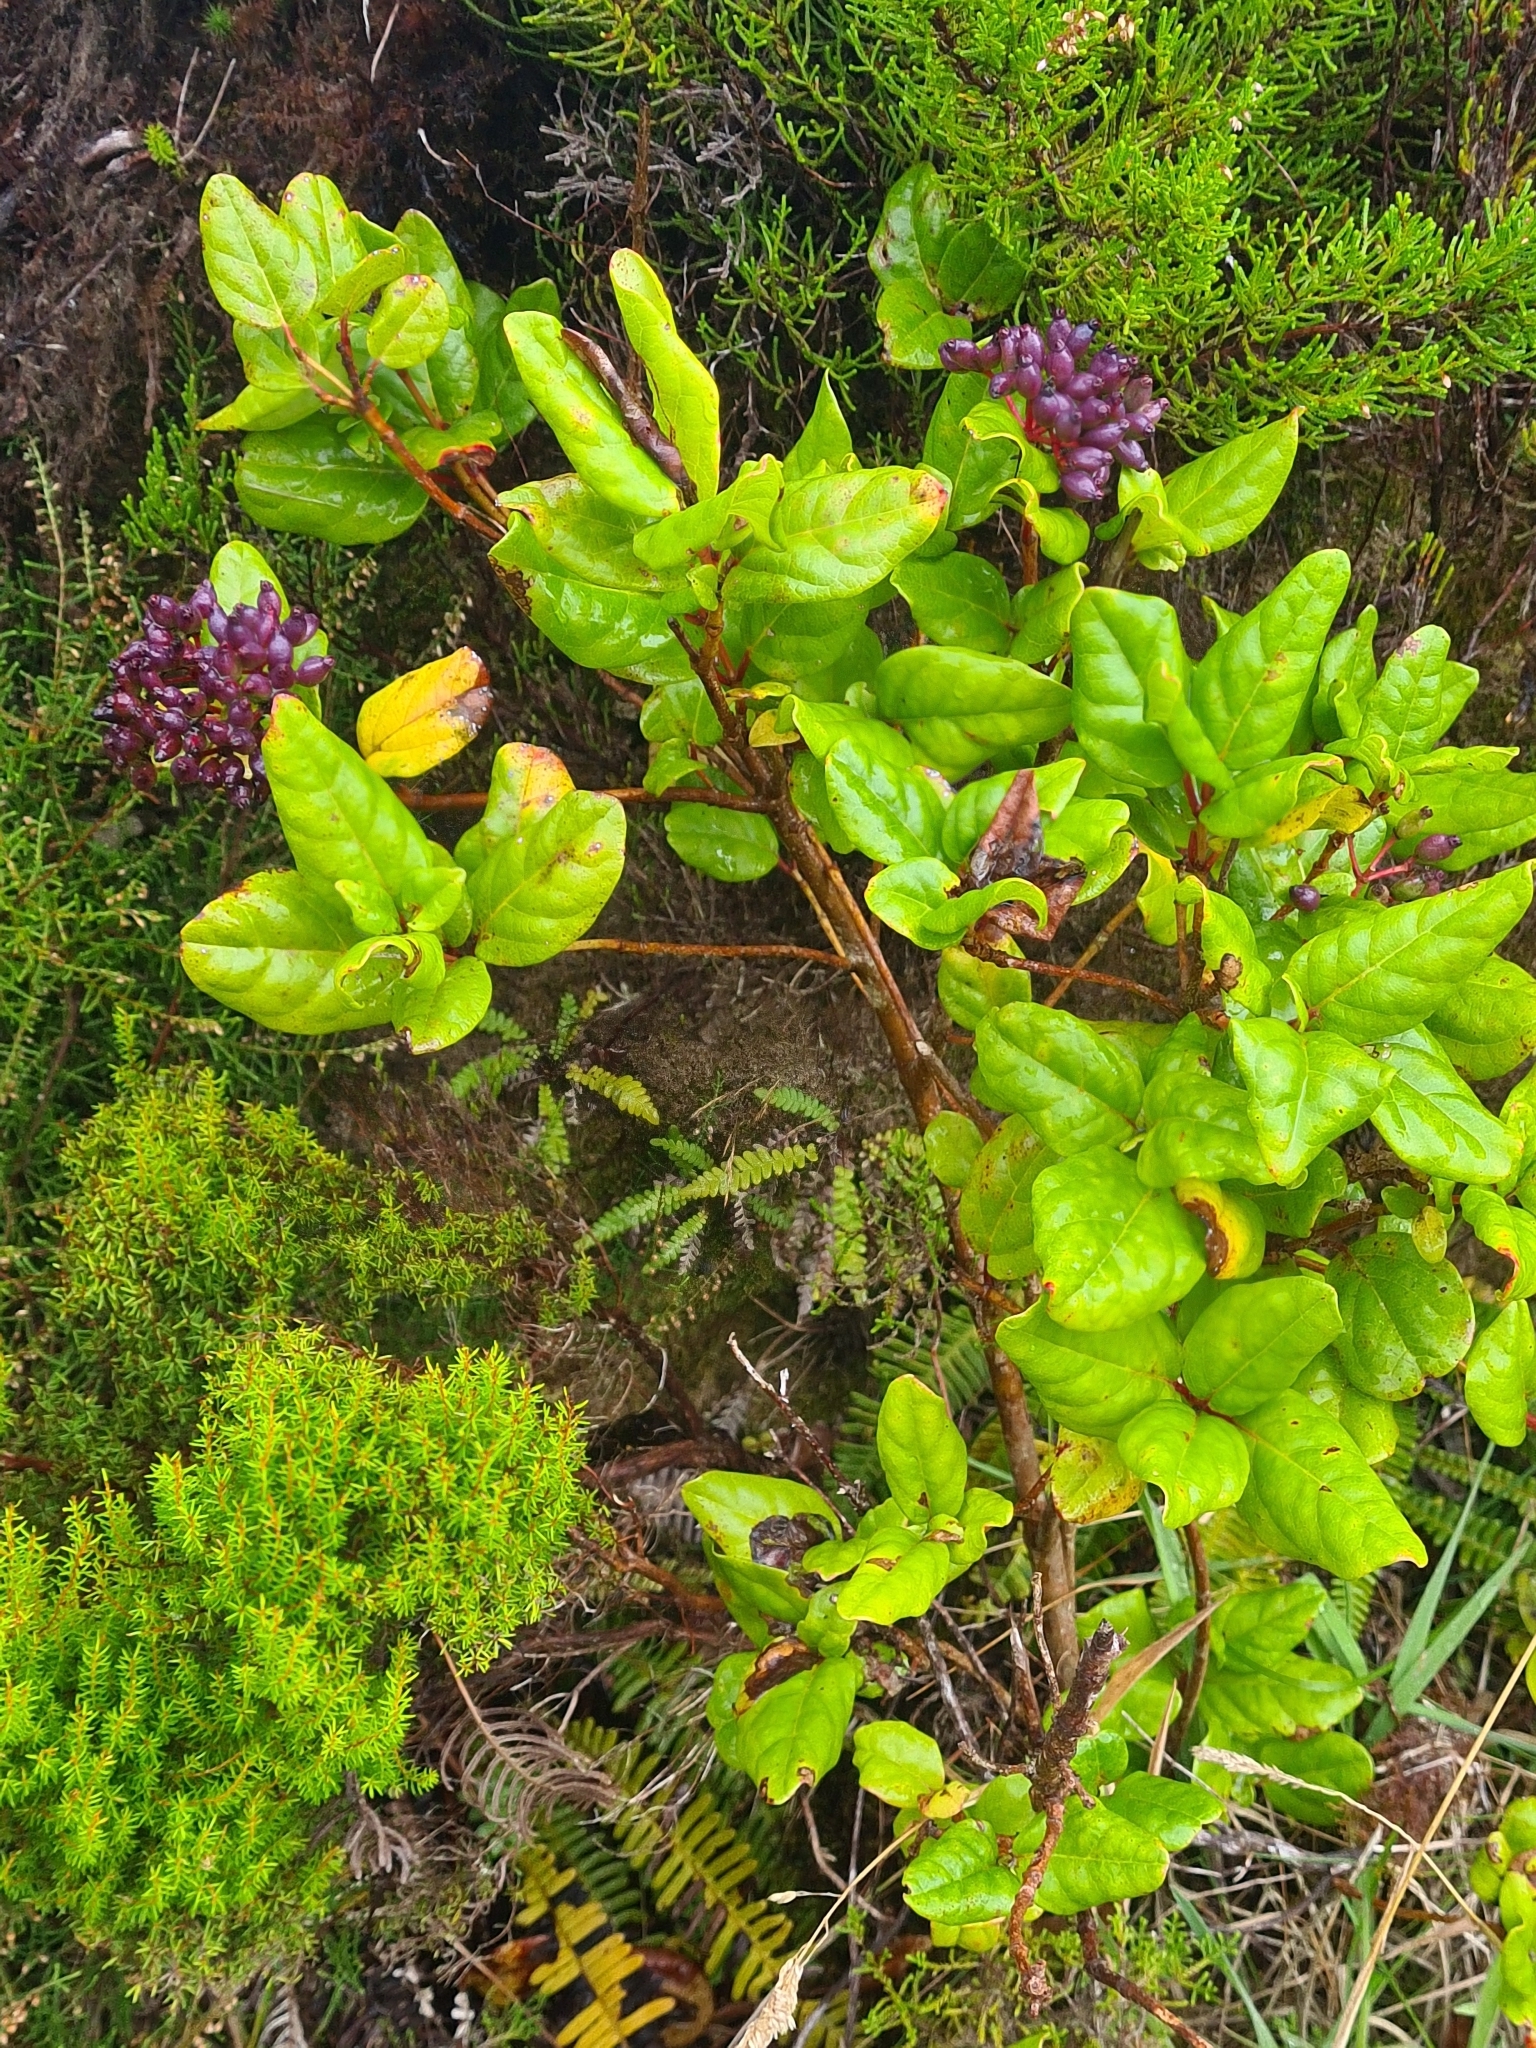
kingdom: Plantae
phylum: Tracheophyta
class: Magnoliopsida
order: Dipsacales
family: Viburnaceae
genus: Viburnum
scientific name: Viburnum treleasei
